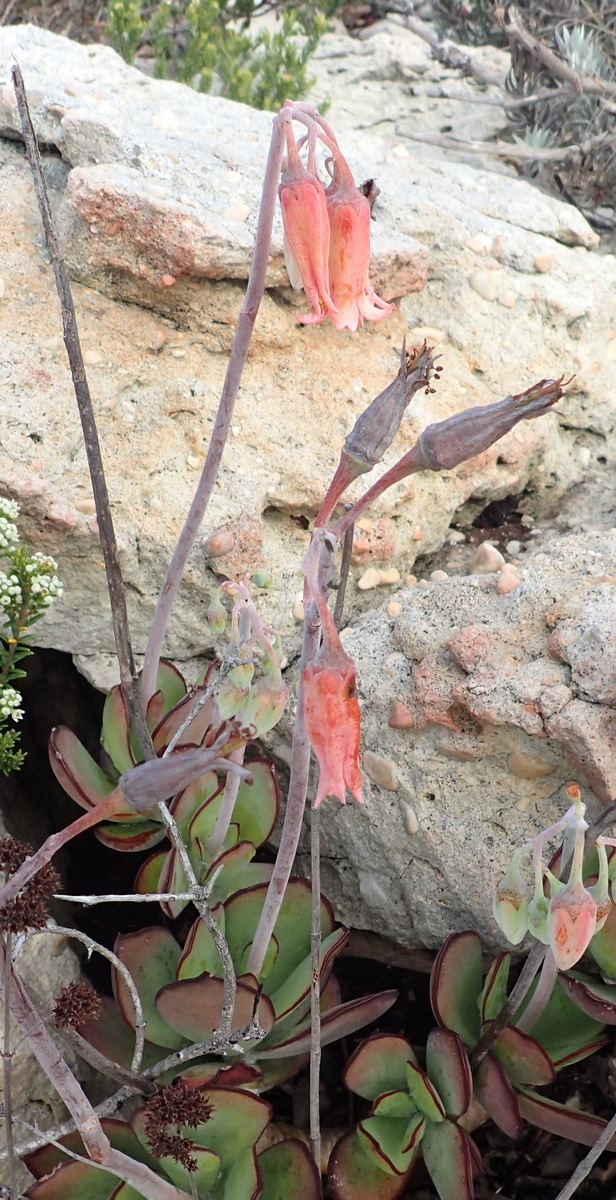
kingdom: Plantae
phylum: Tracheophyta
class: Magnoliopsida
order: Saxifragales
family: Crassulaceae
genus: Cotyledon
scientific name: Cotyledon orbiculata
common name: Pig's ear
